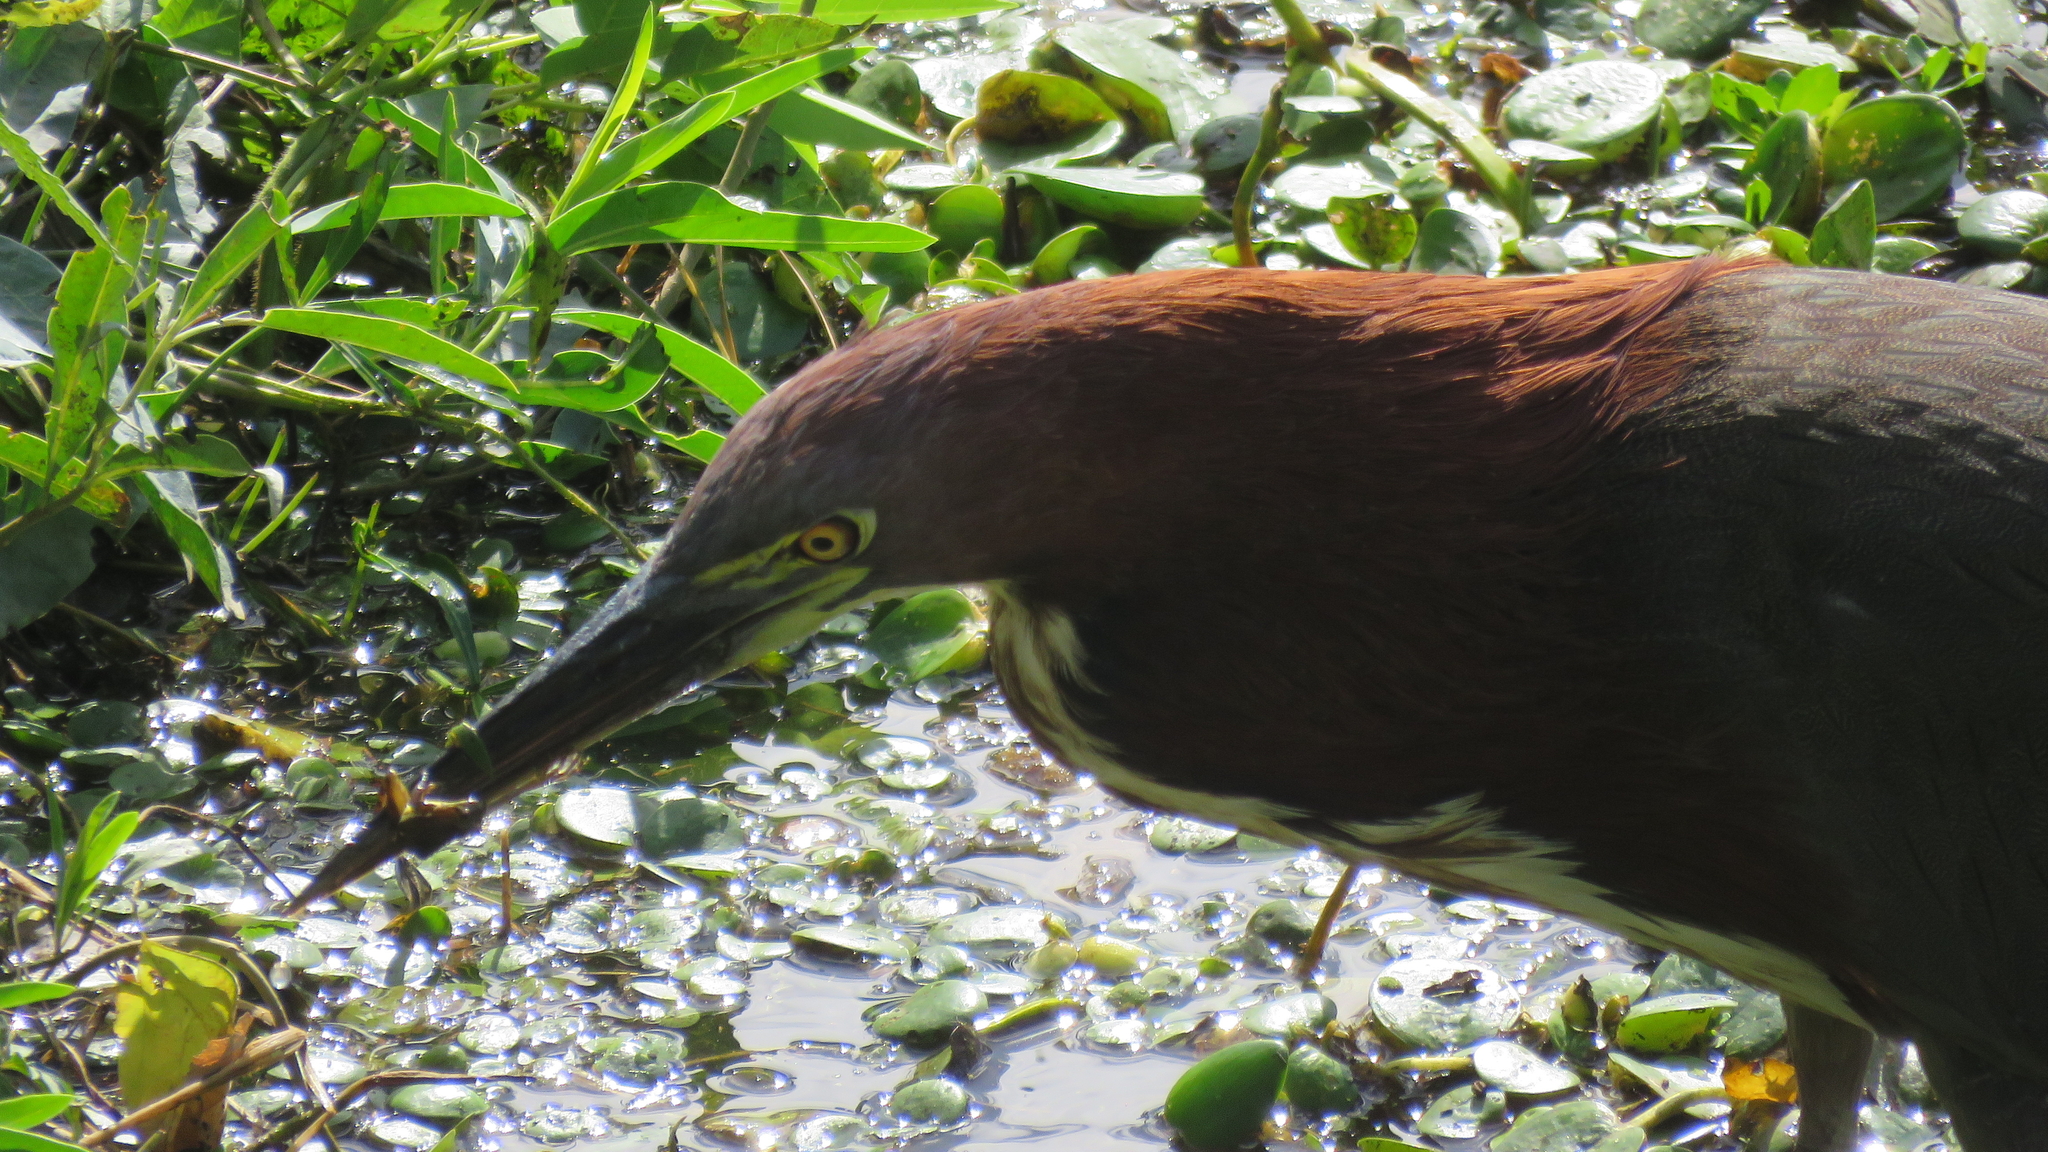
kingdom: Animalia
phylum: Chordata
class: Aves
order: Pelecaniformes
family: Ardeidae
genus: Tigrisoma
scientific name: Tigrisoma lineatum
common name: Rufescent tiger-heron
